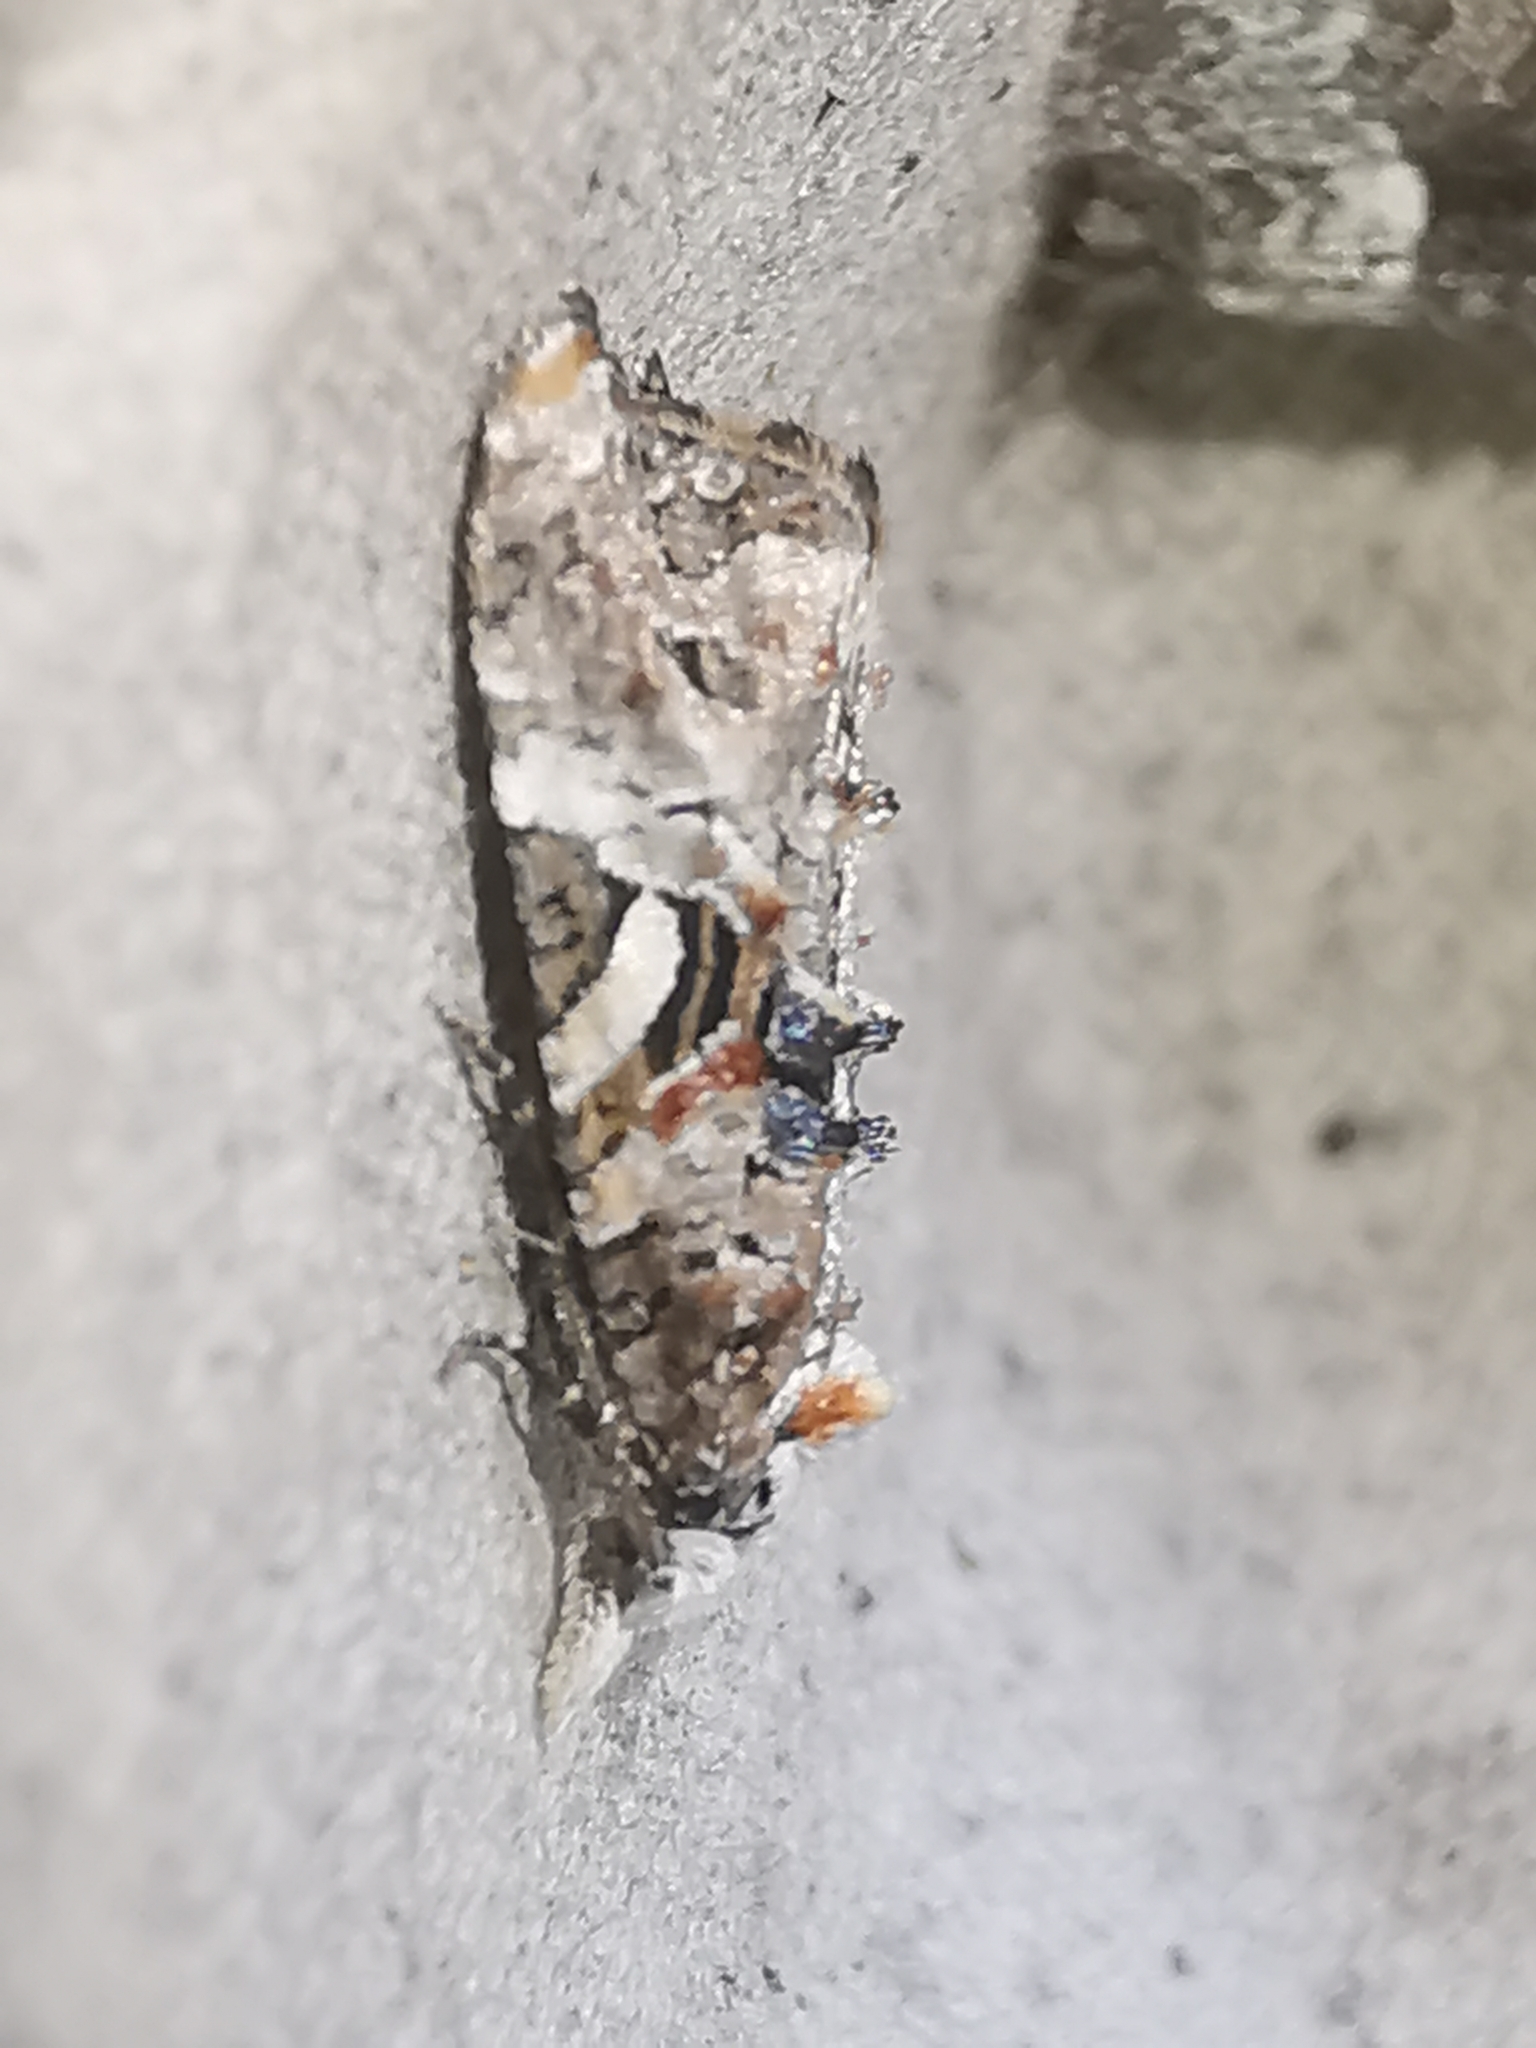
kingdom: Animalia
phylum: Arthropoda
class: Insecta
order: Lepidoptera
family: Tortricidae
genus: Phtheochroa
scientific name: Phtheochroa rugosana
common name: Rough-winged conch
